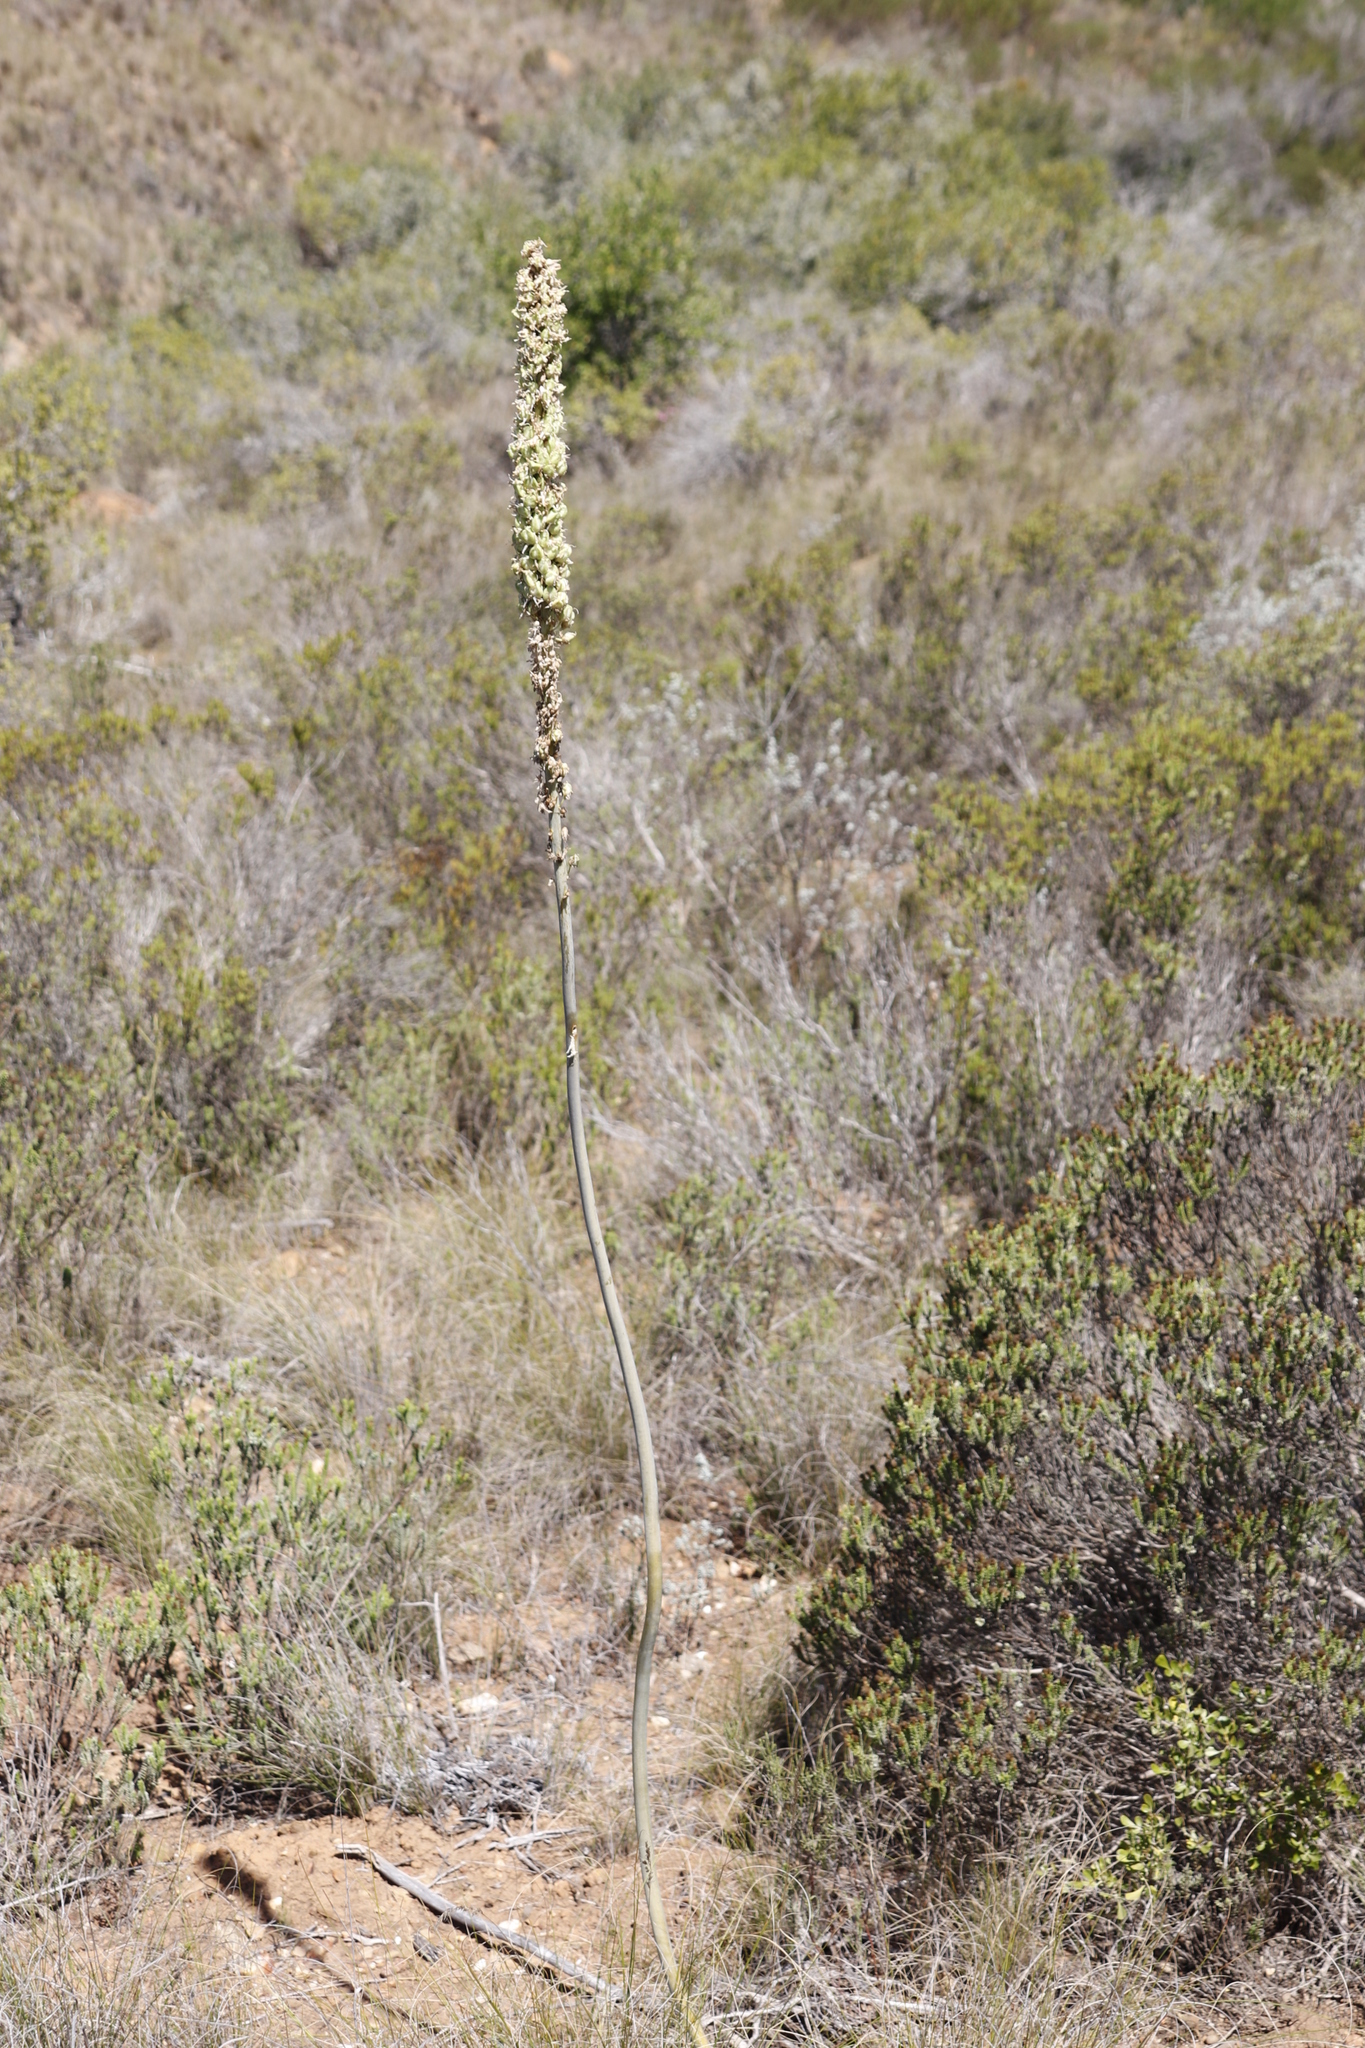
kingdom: Plantae
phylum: Tracheophyta
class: Liliopsida
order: Asparagales
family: Asparagaceae
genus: Drimia
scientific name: Drimia capensis
